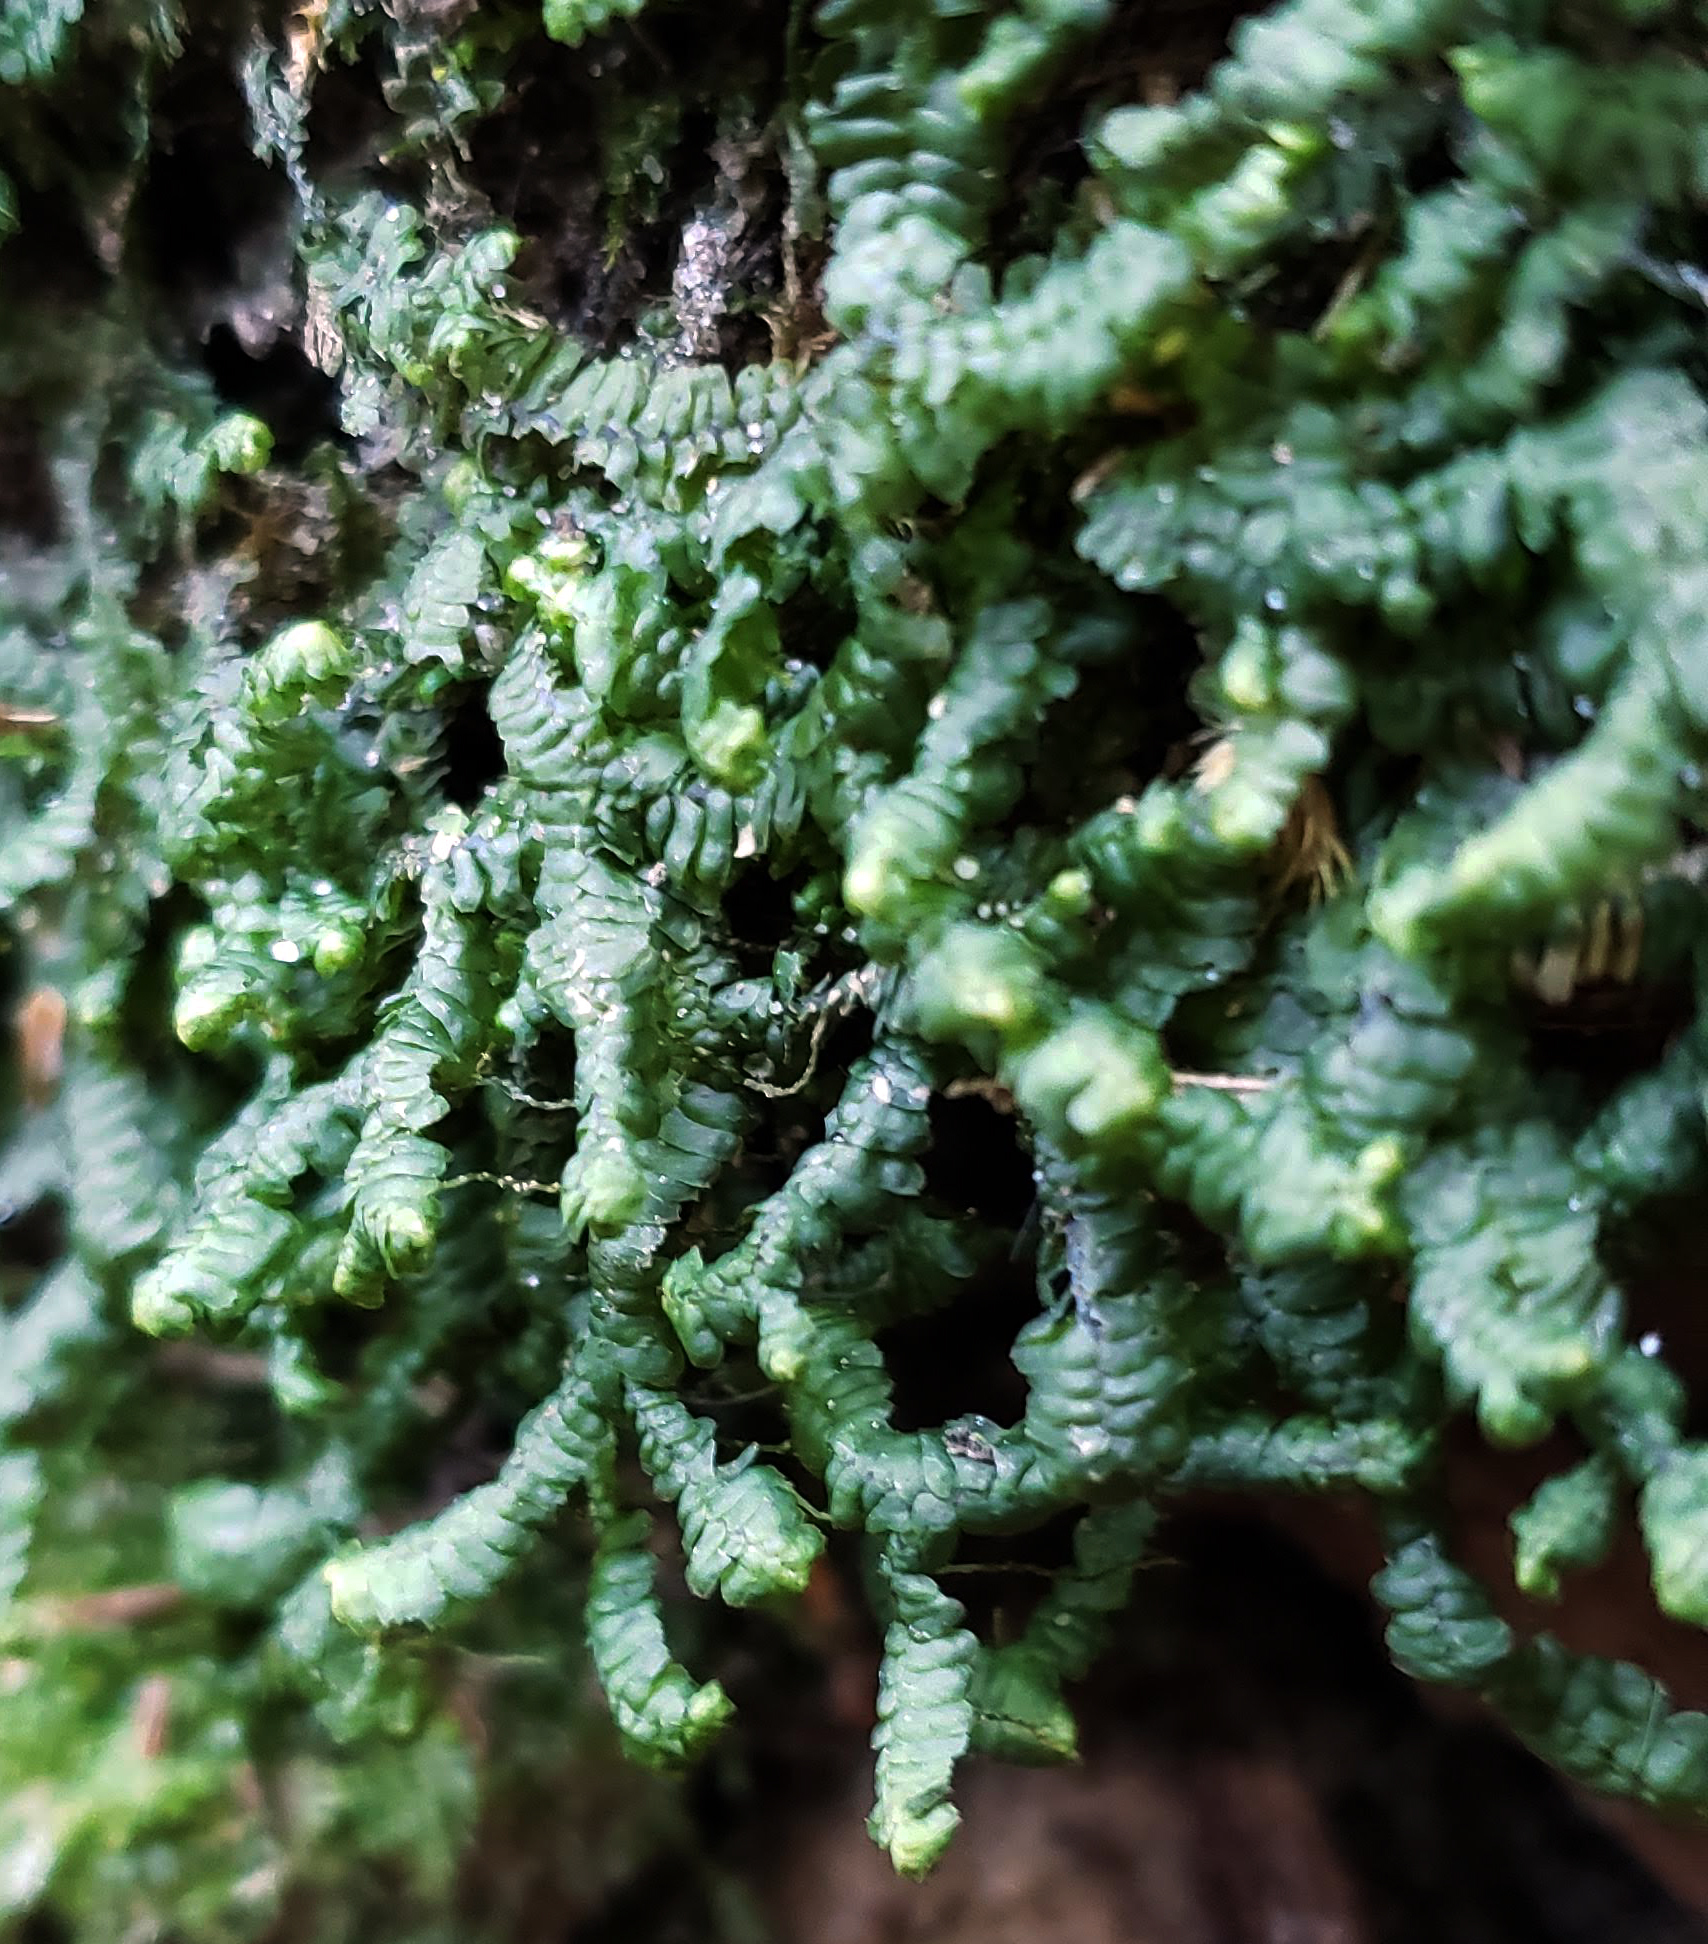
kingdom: Plantae
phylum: Marchantiophyta
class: Jungermanniopsida
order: Jungermanniales
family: Lepidoziaceae
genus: Bazzania
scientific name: Bazzania trilobata
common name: Three-lobed whipwort
